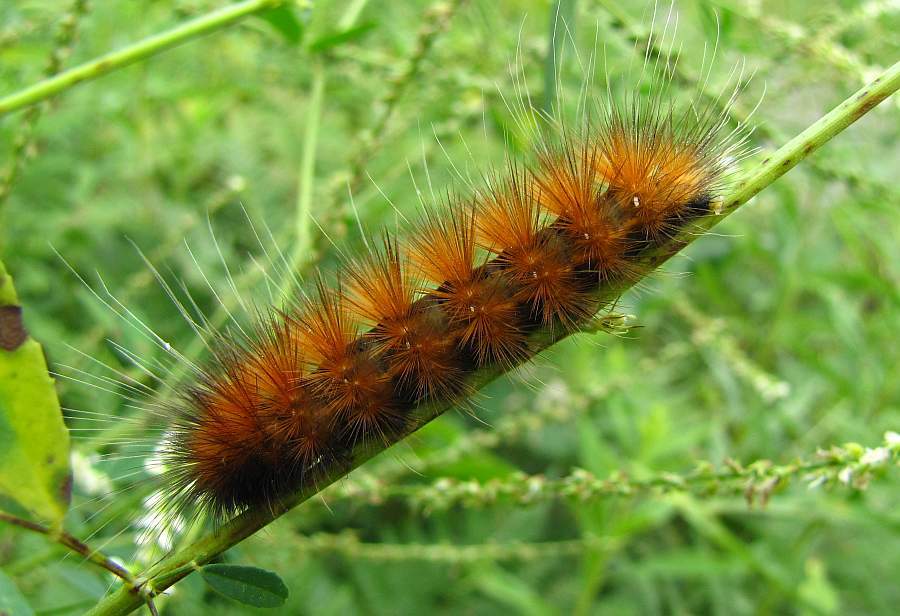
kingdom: Animalia
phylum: Arthropoda
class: Insecta
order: Lepidoptera
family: Erebidae
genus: Spilosoma
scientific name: Spilosoma virginica
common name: Virginia tiger moth
